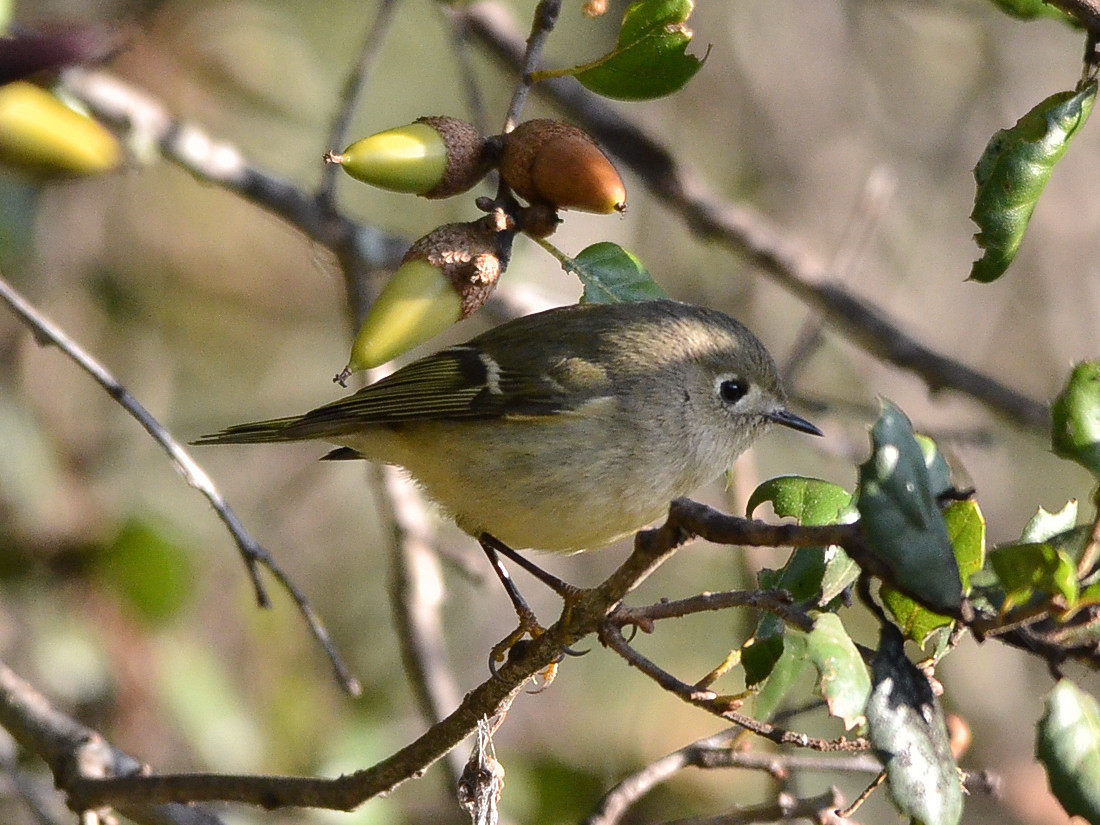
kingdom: Animalia
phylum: Chordata
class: Aves
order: Passeriformes
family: Regulidae
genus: Regulus
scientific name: Regulus calendula
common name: Ruby-crowned kinglet
